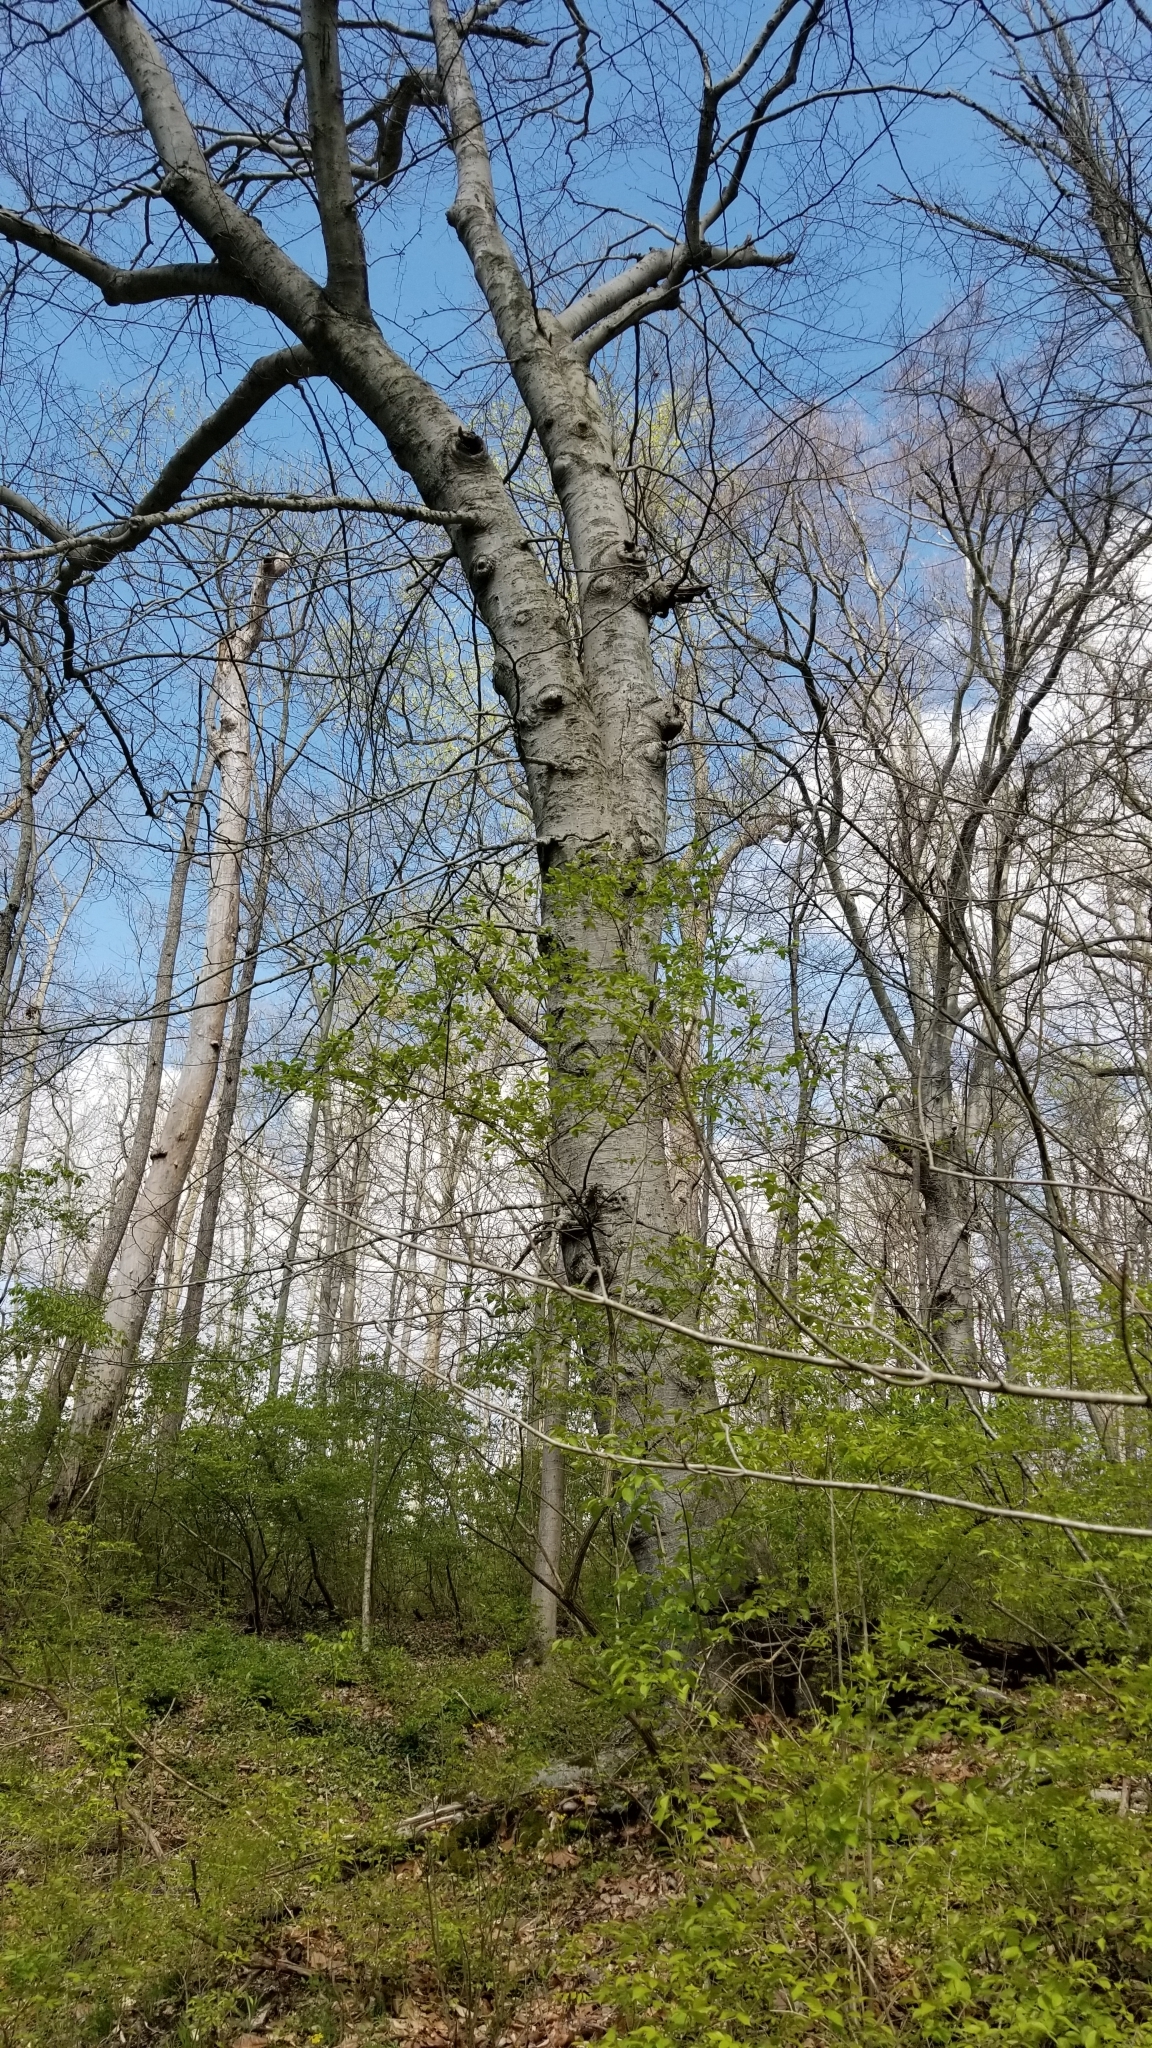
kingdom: Plantae
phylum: Tracheophyta
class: Magnoliopsida
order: Fagales
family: Fagaceae
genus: Fagus
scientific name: Fagus grandifolia
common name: American beech
